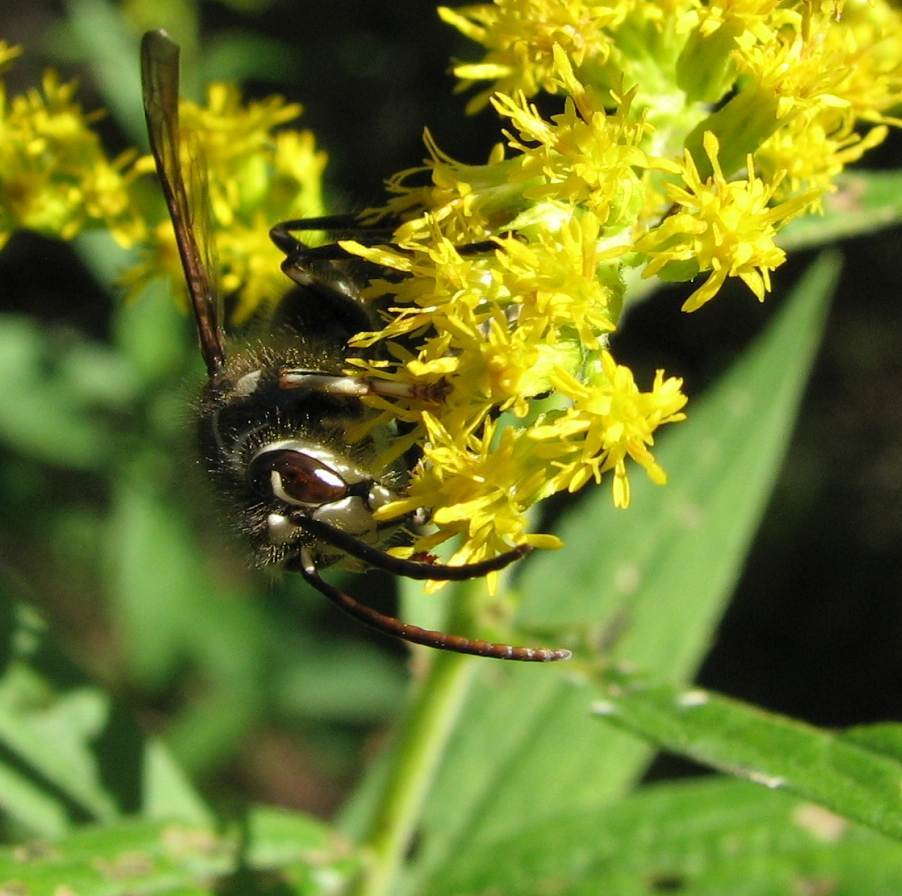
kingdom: Animalia
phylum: Arthropoda
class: Insecta
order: Hymenoptera
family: Vespidae
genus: Dolichovespula
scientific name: Dolichovespula maculata
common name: Bald-faced hornet
